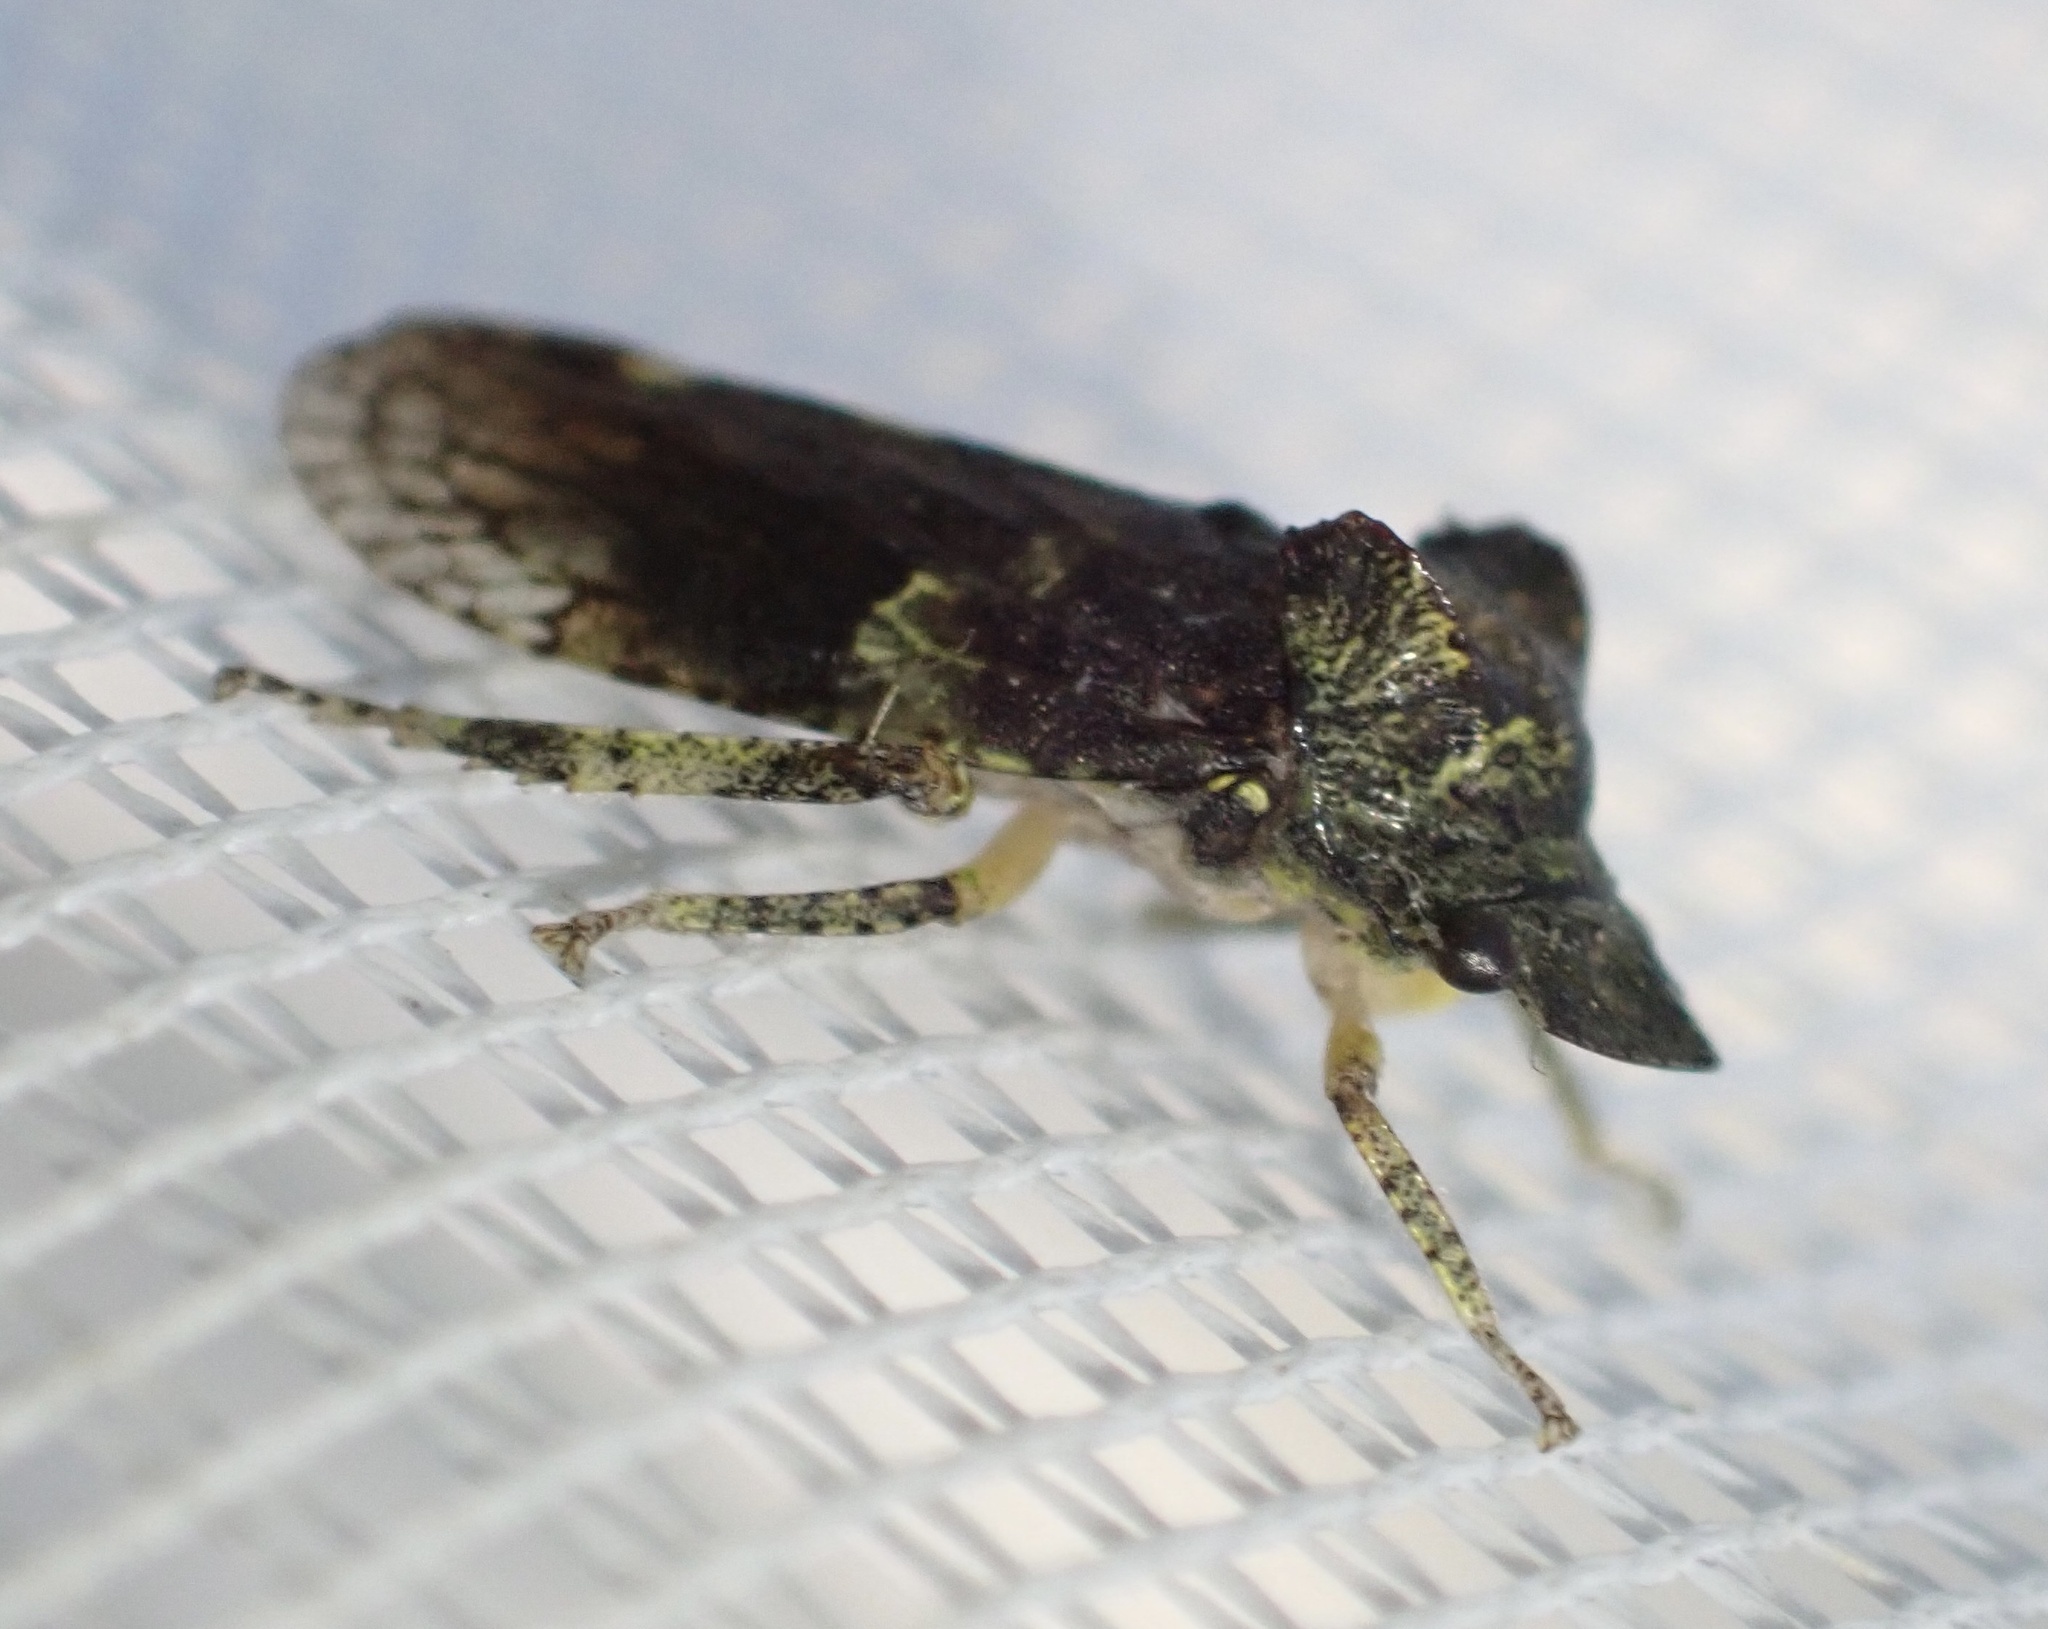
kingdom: Animalia
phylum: Arthropoda
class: Insecta
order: Hemiptera
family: Cicadellidae
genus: Ledra
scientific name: Ledra aurita
